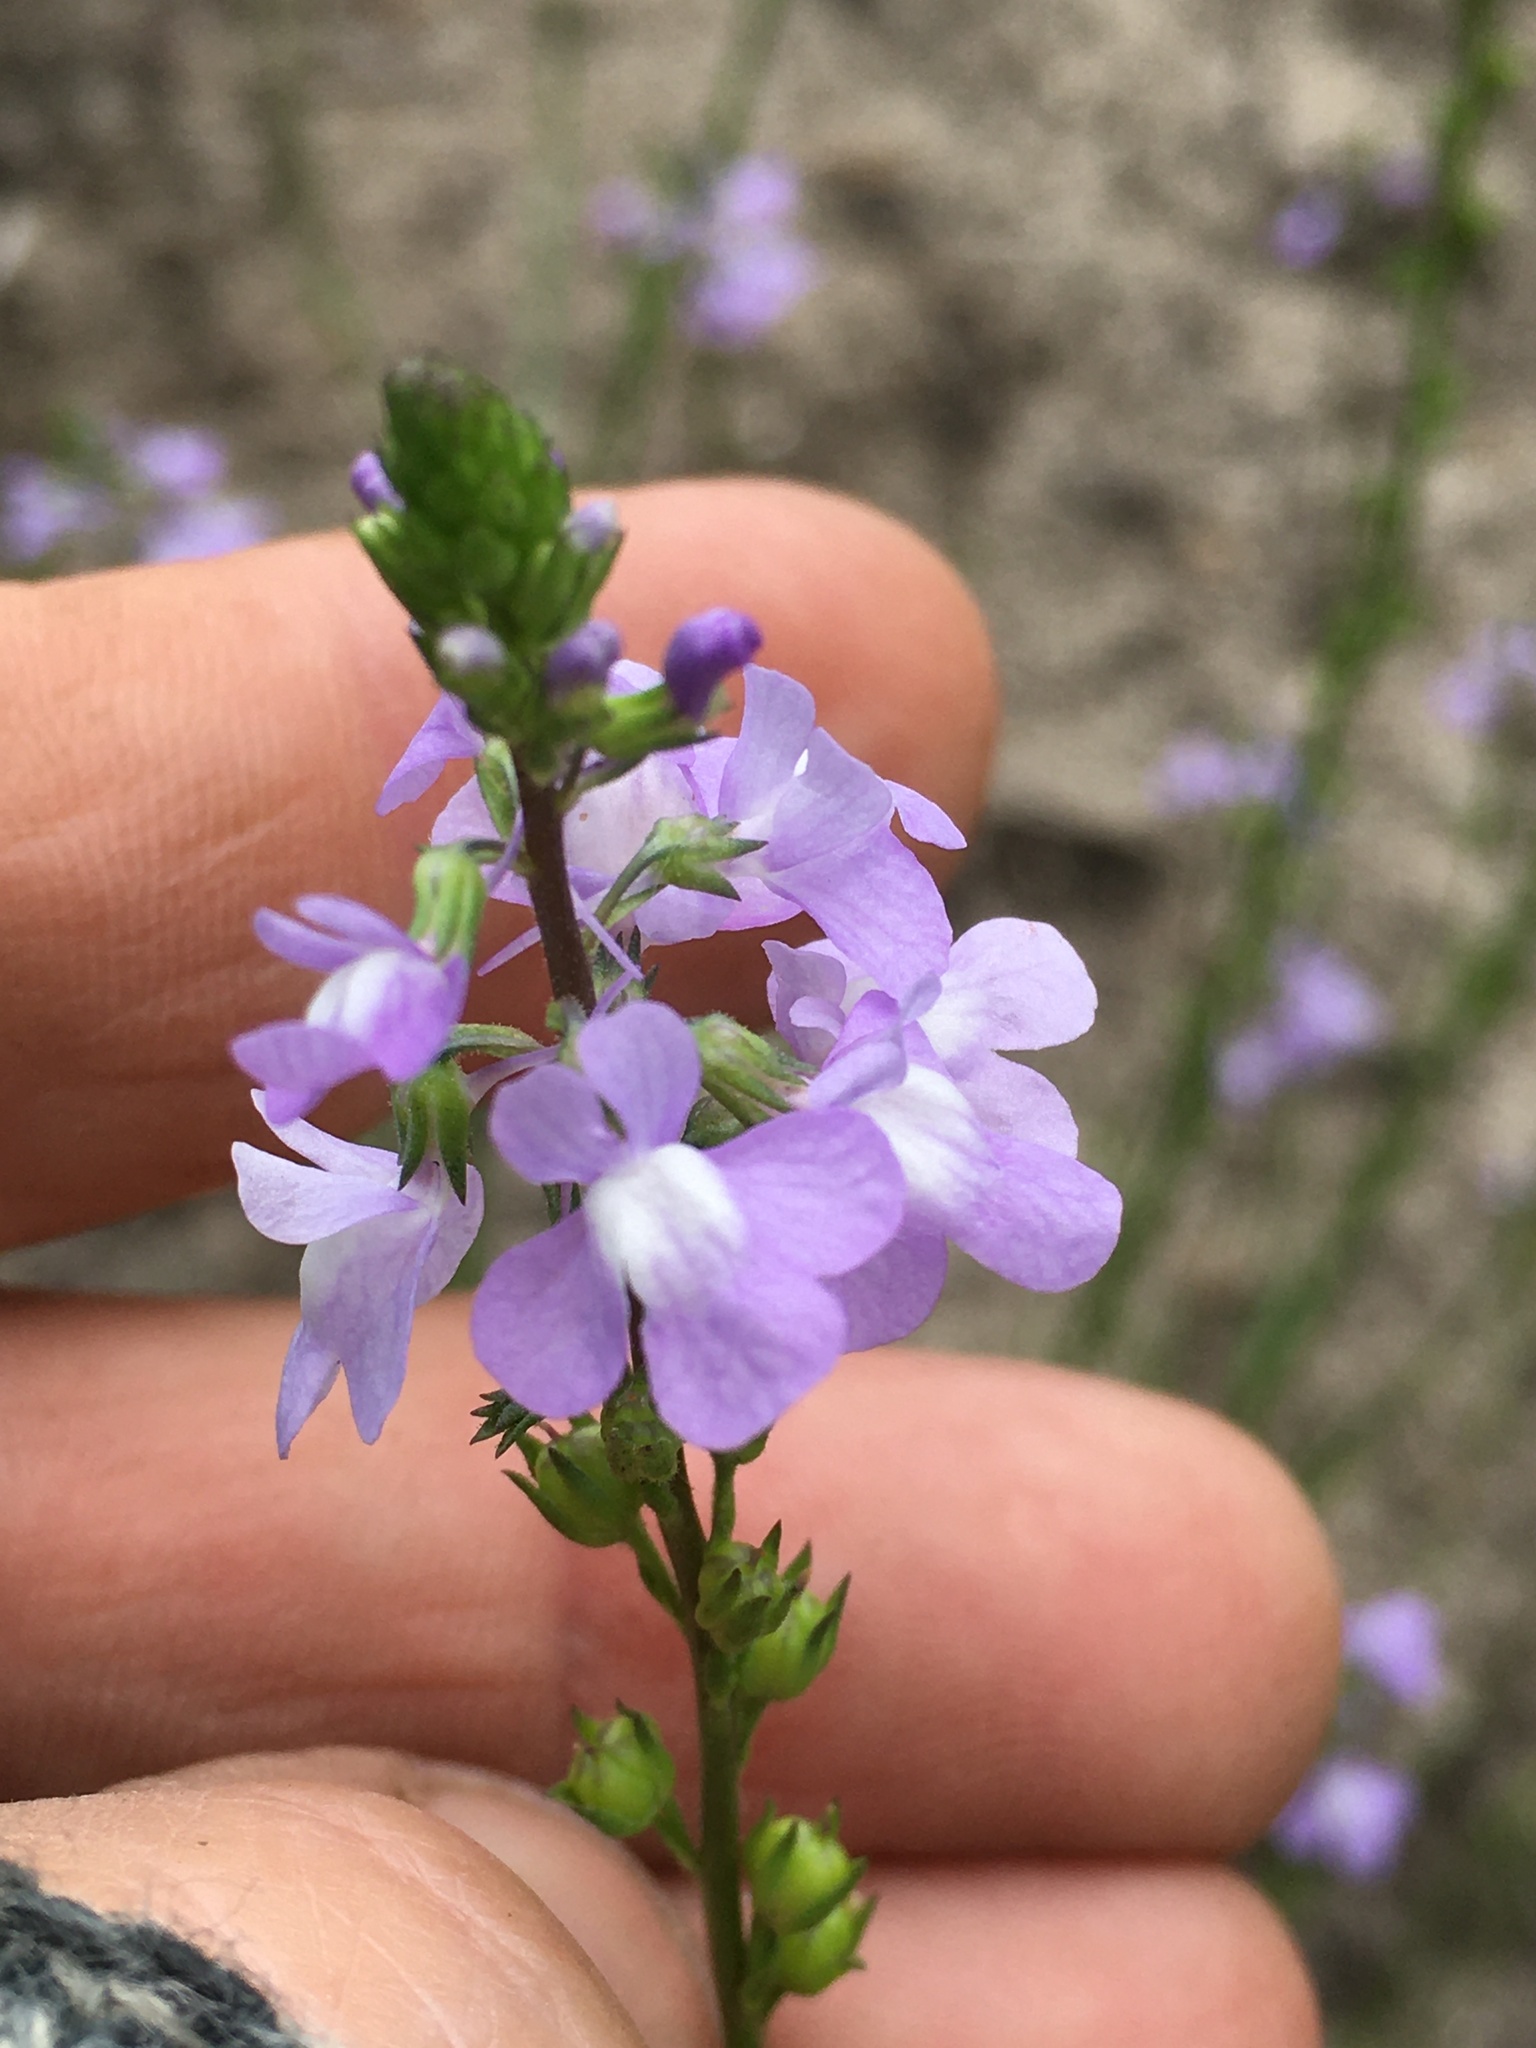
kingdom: Plantae
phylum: Tracheophyta
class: Magnoliopsida
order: Lamiales
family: Plantaginaceae
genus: Nuttallanthus
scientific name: Nuttallanthus canadensis
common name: Blue toadflax
